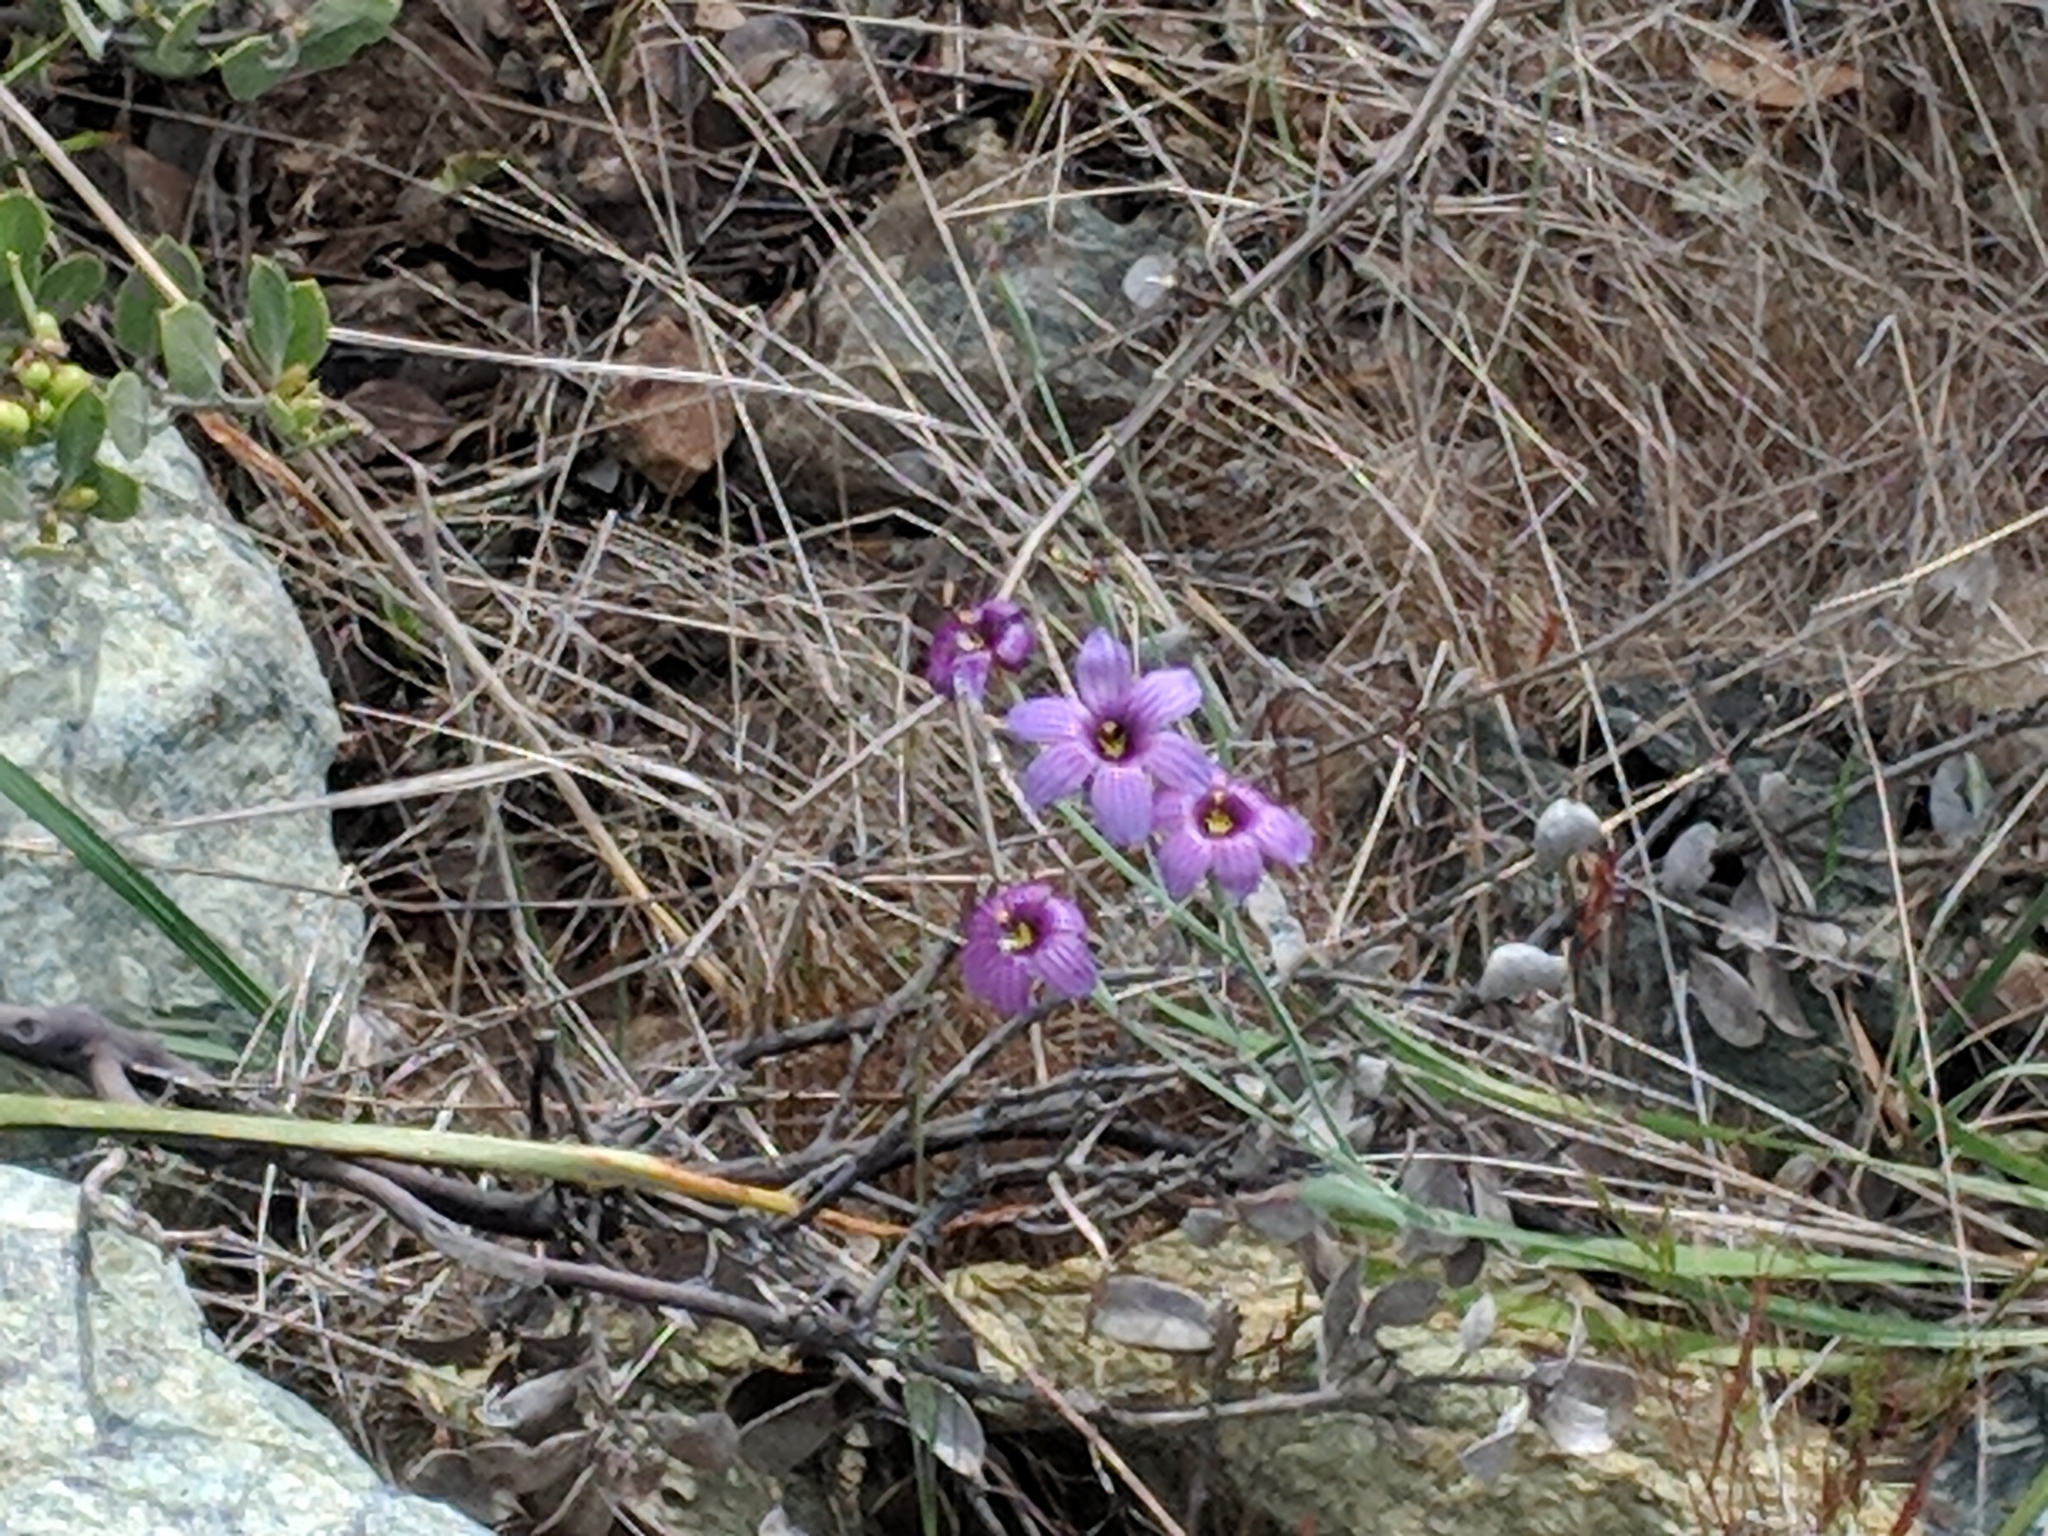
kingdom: Plantae
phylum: Tracheophyta
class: Liliopsida
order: Asparagales
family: Iridaceae
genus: Sisyrinchium
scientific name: Sisyrinchium bellum
